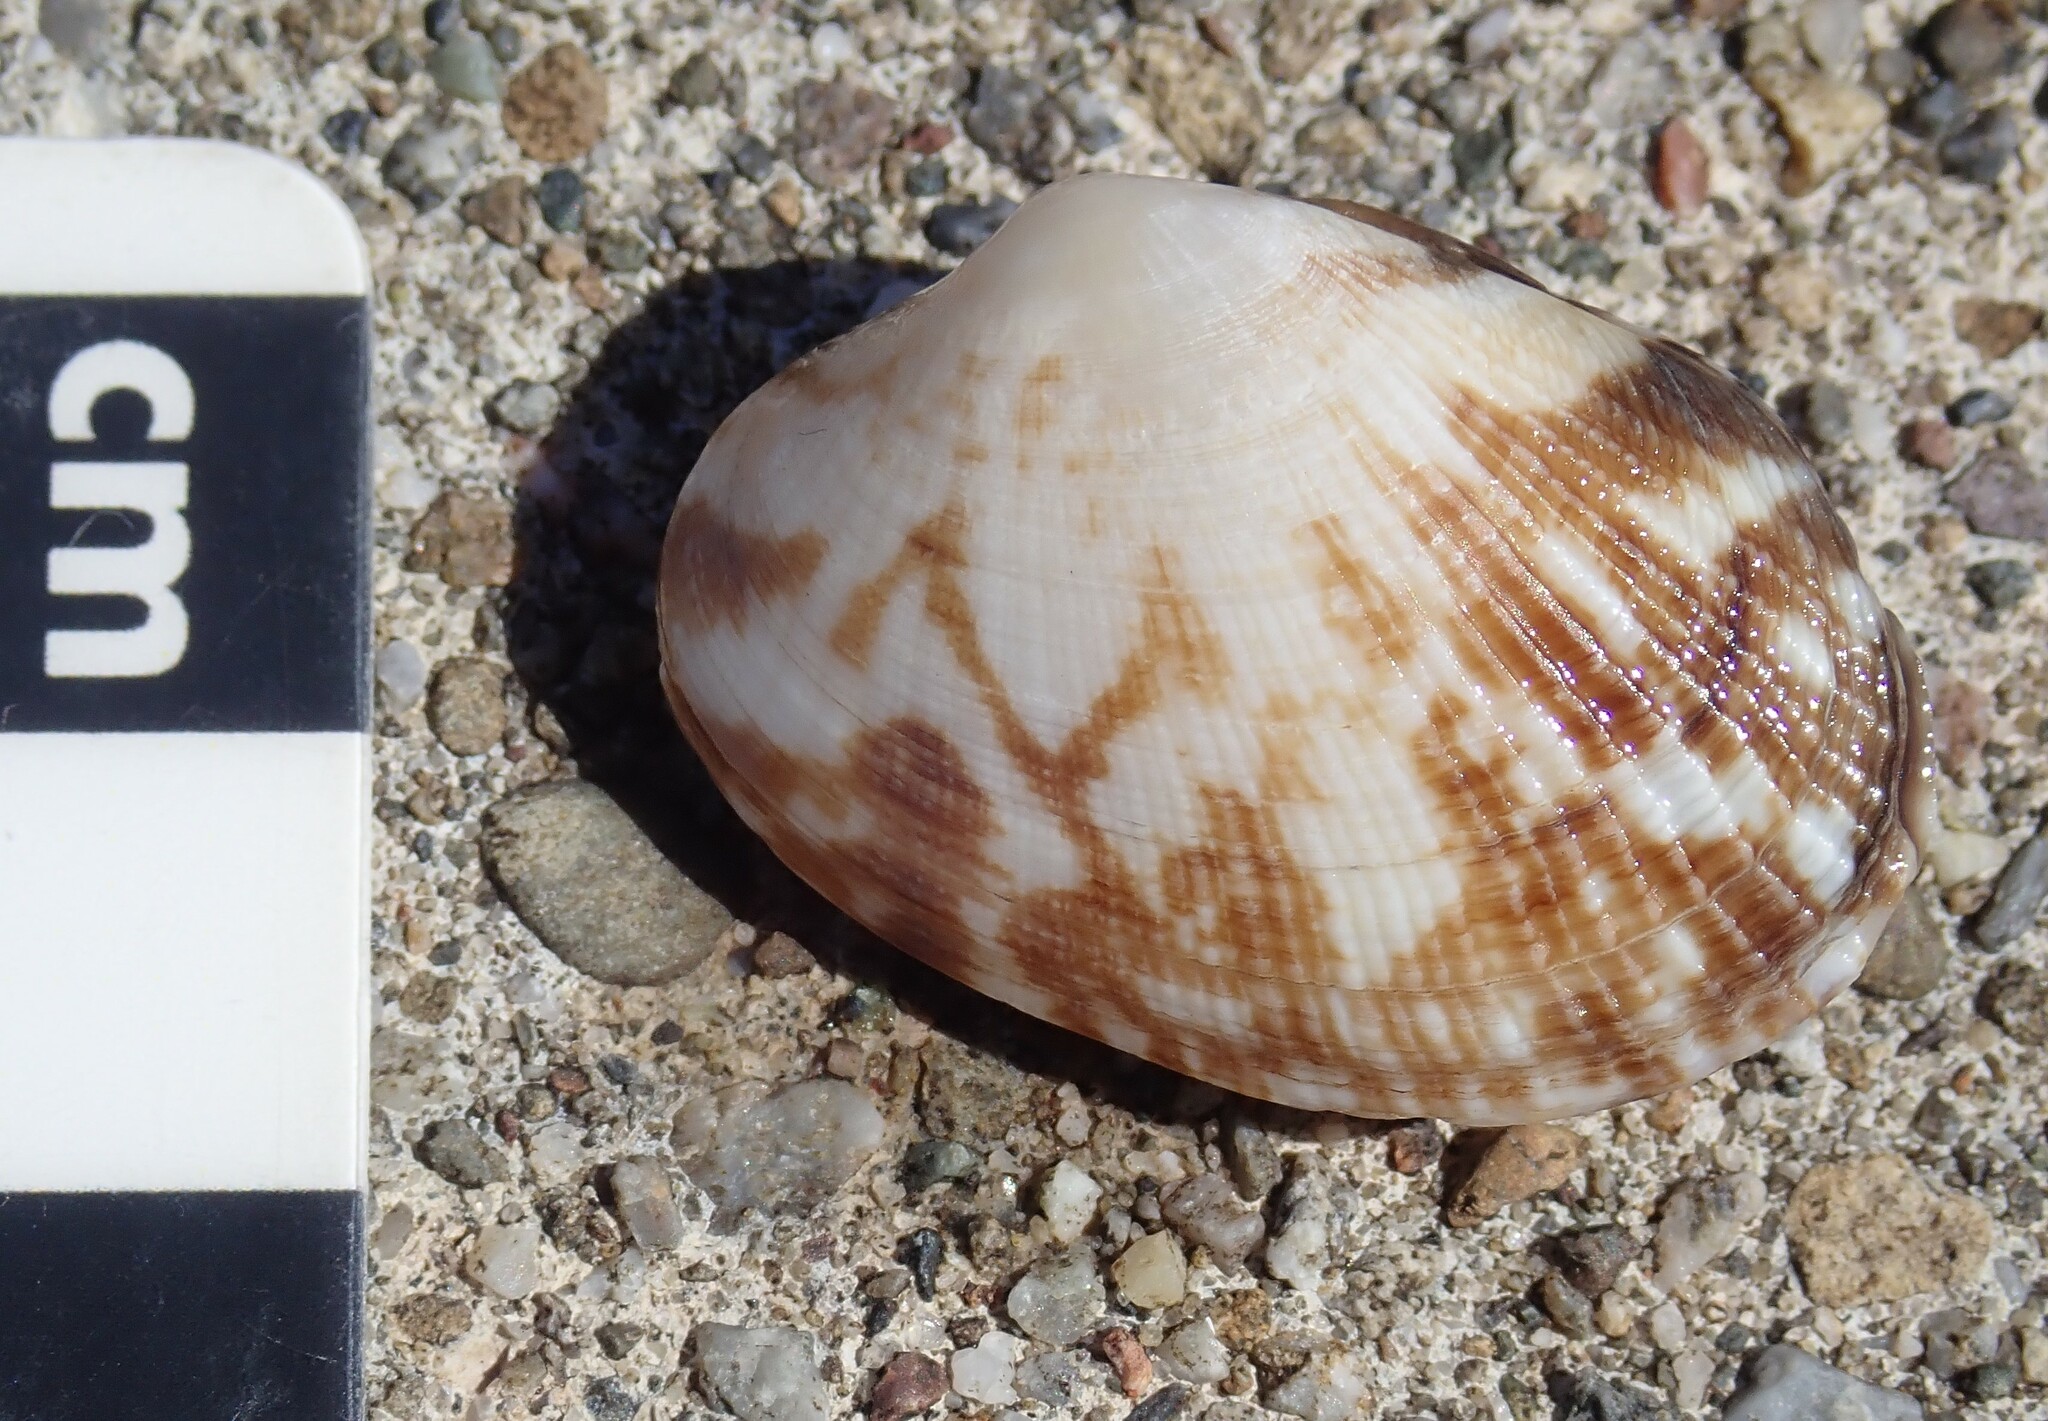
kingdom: Animalia
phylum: Mollusca
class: Bivalvia
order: Venerida
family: Veneridae
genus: Ruditapes
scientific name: Ruditapes philippinarum
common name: Manila clam
